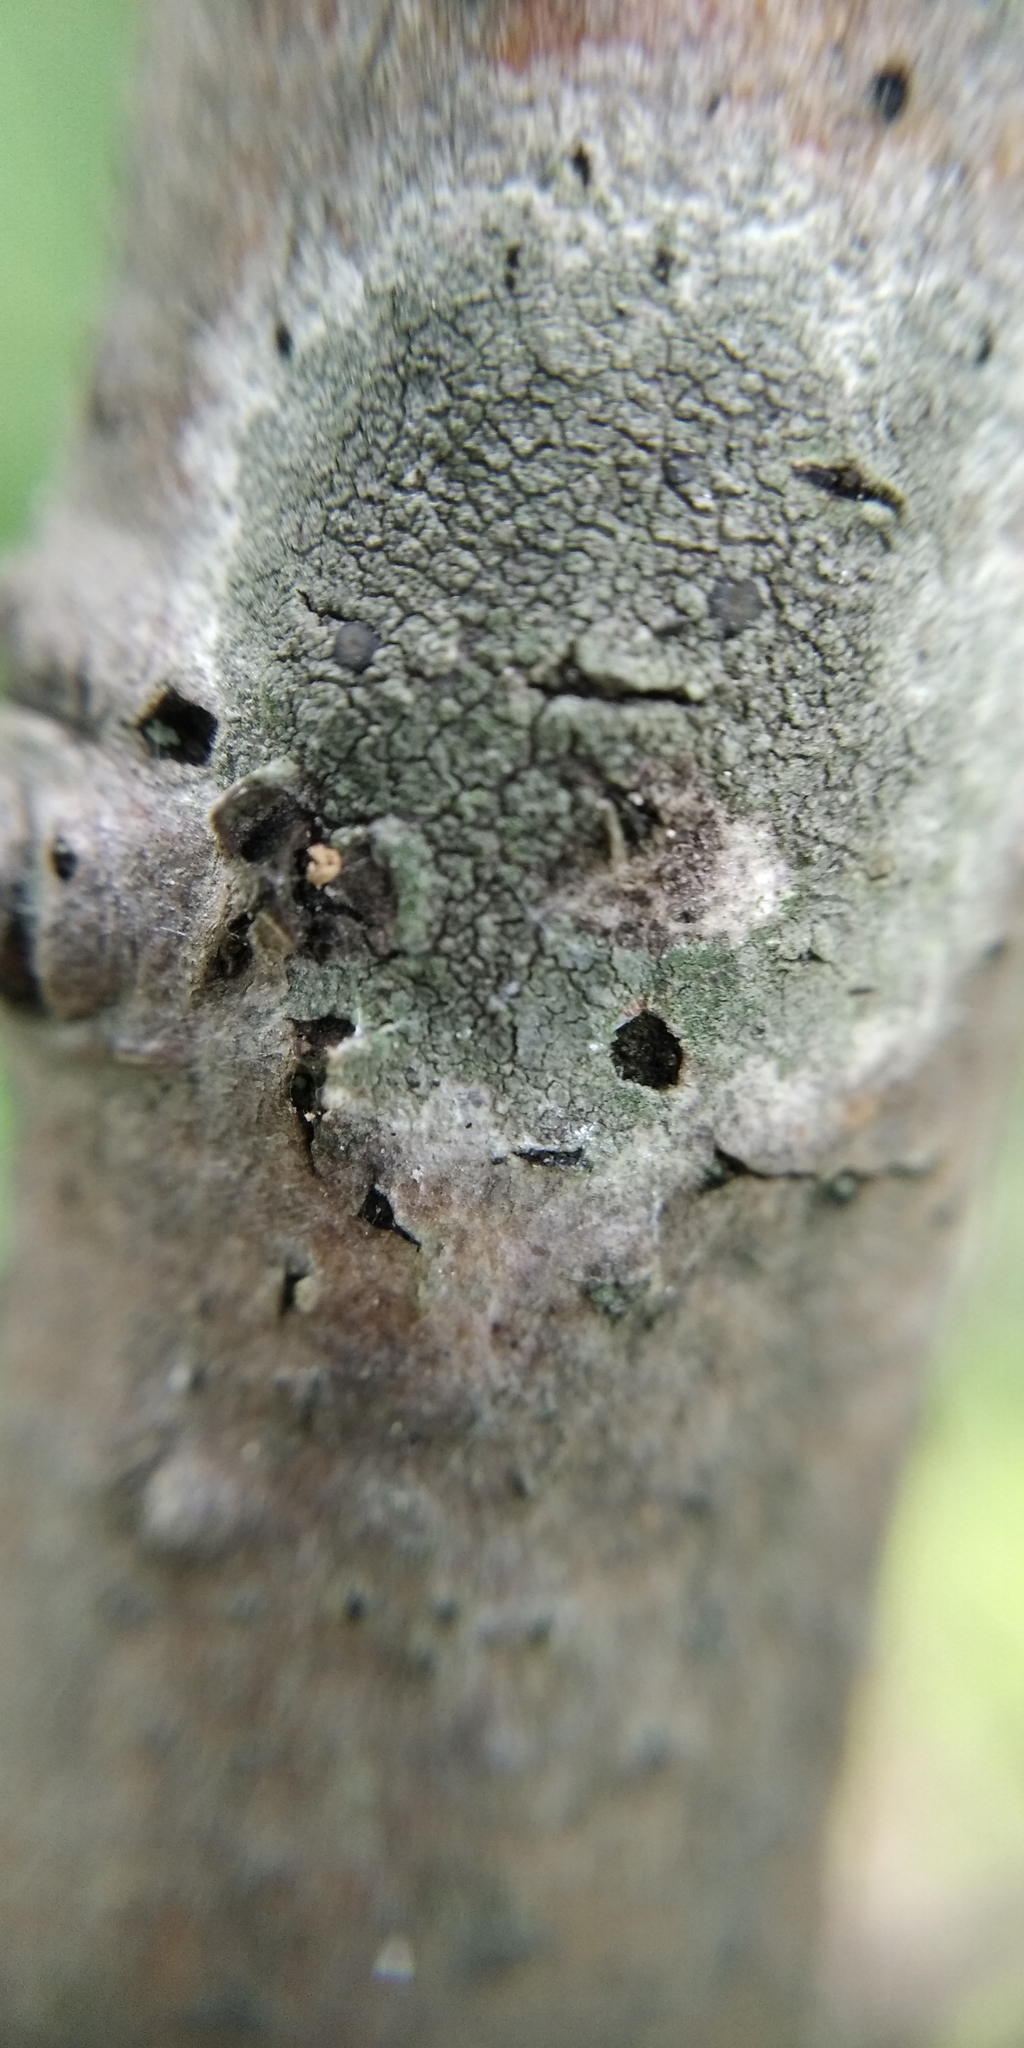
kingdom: Fungi
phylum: Ascomycota
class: Lecanoromycetes
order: Lecanorales
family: Lecanoraceae
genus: Lecidella
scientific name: Lecidella elaeochroma
